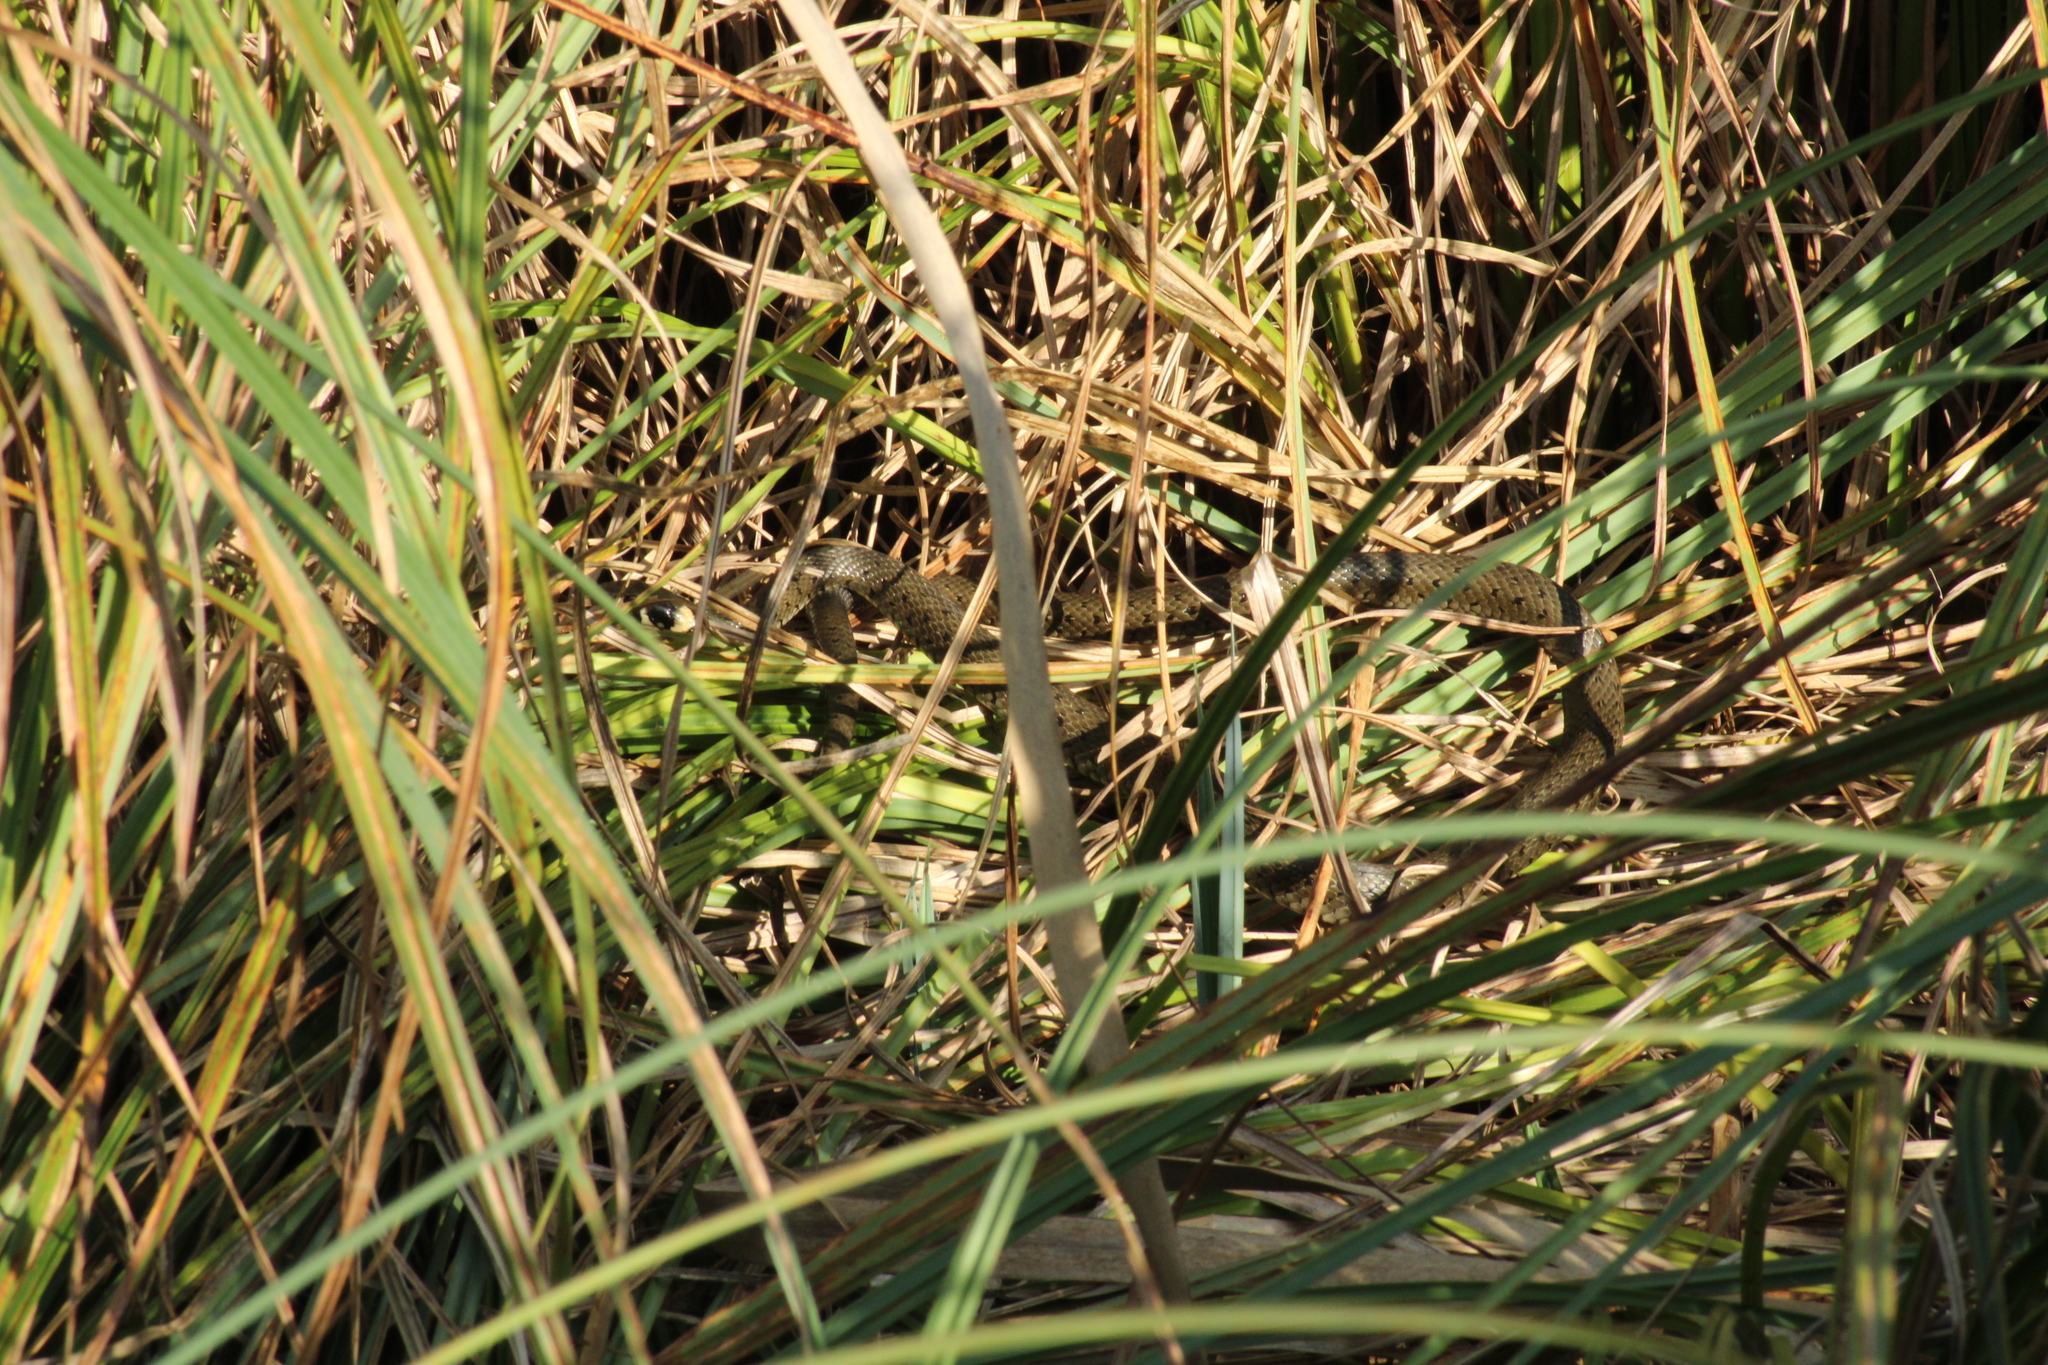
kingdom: Animalia
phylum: Chordata
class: Squamata
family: Colubridae
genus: Natrix
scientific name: Natrix natrix
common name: Grass snake
